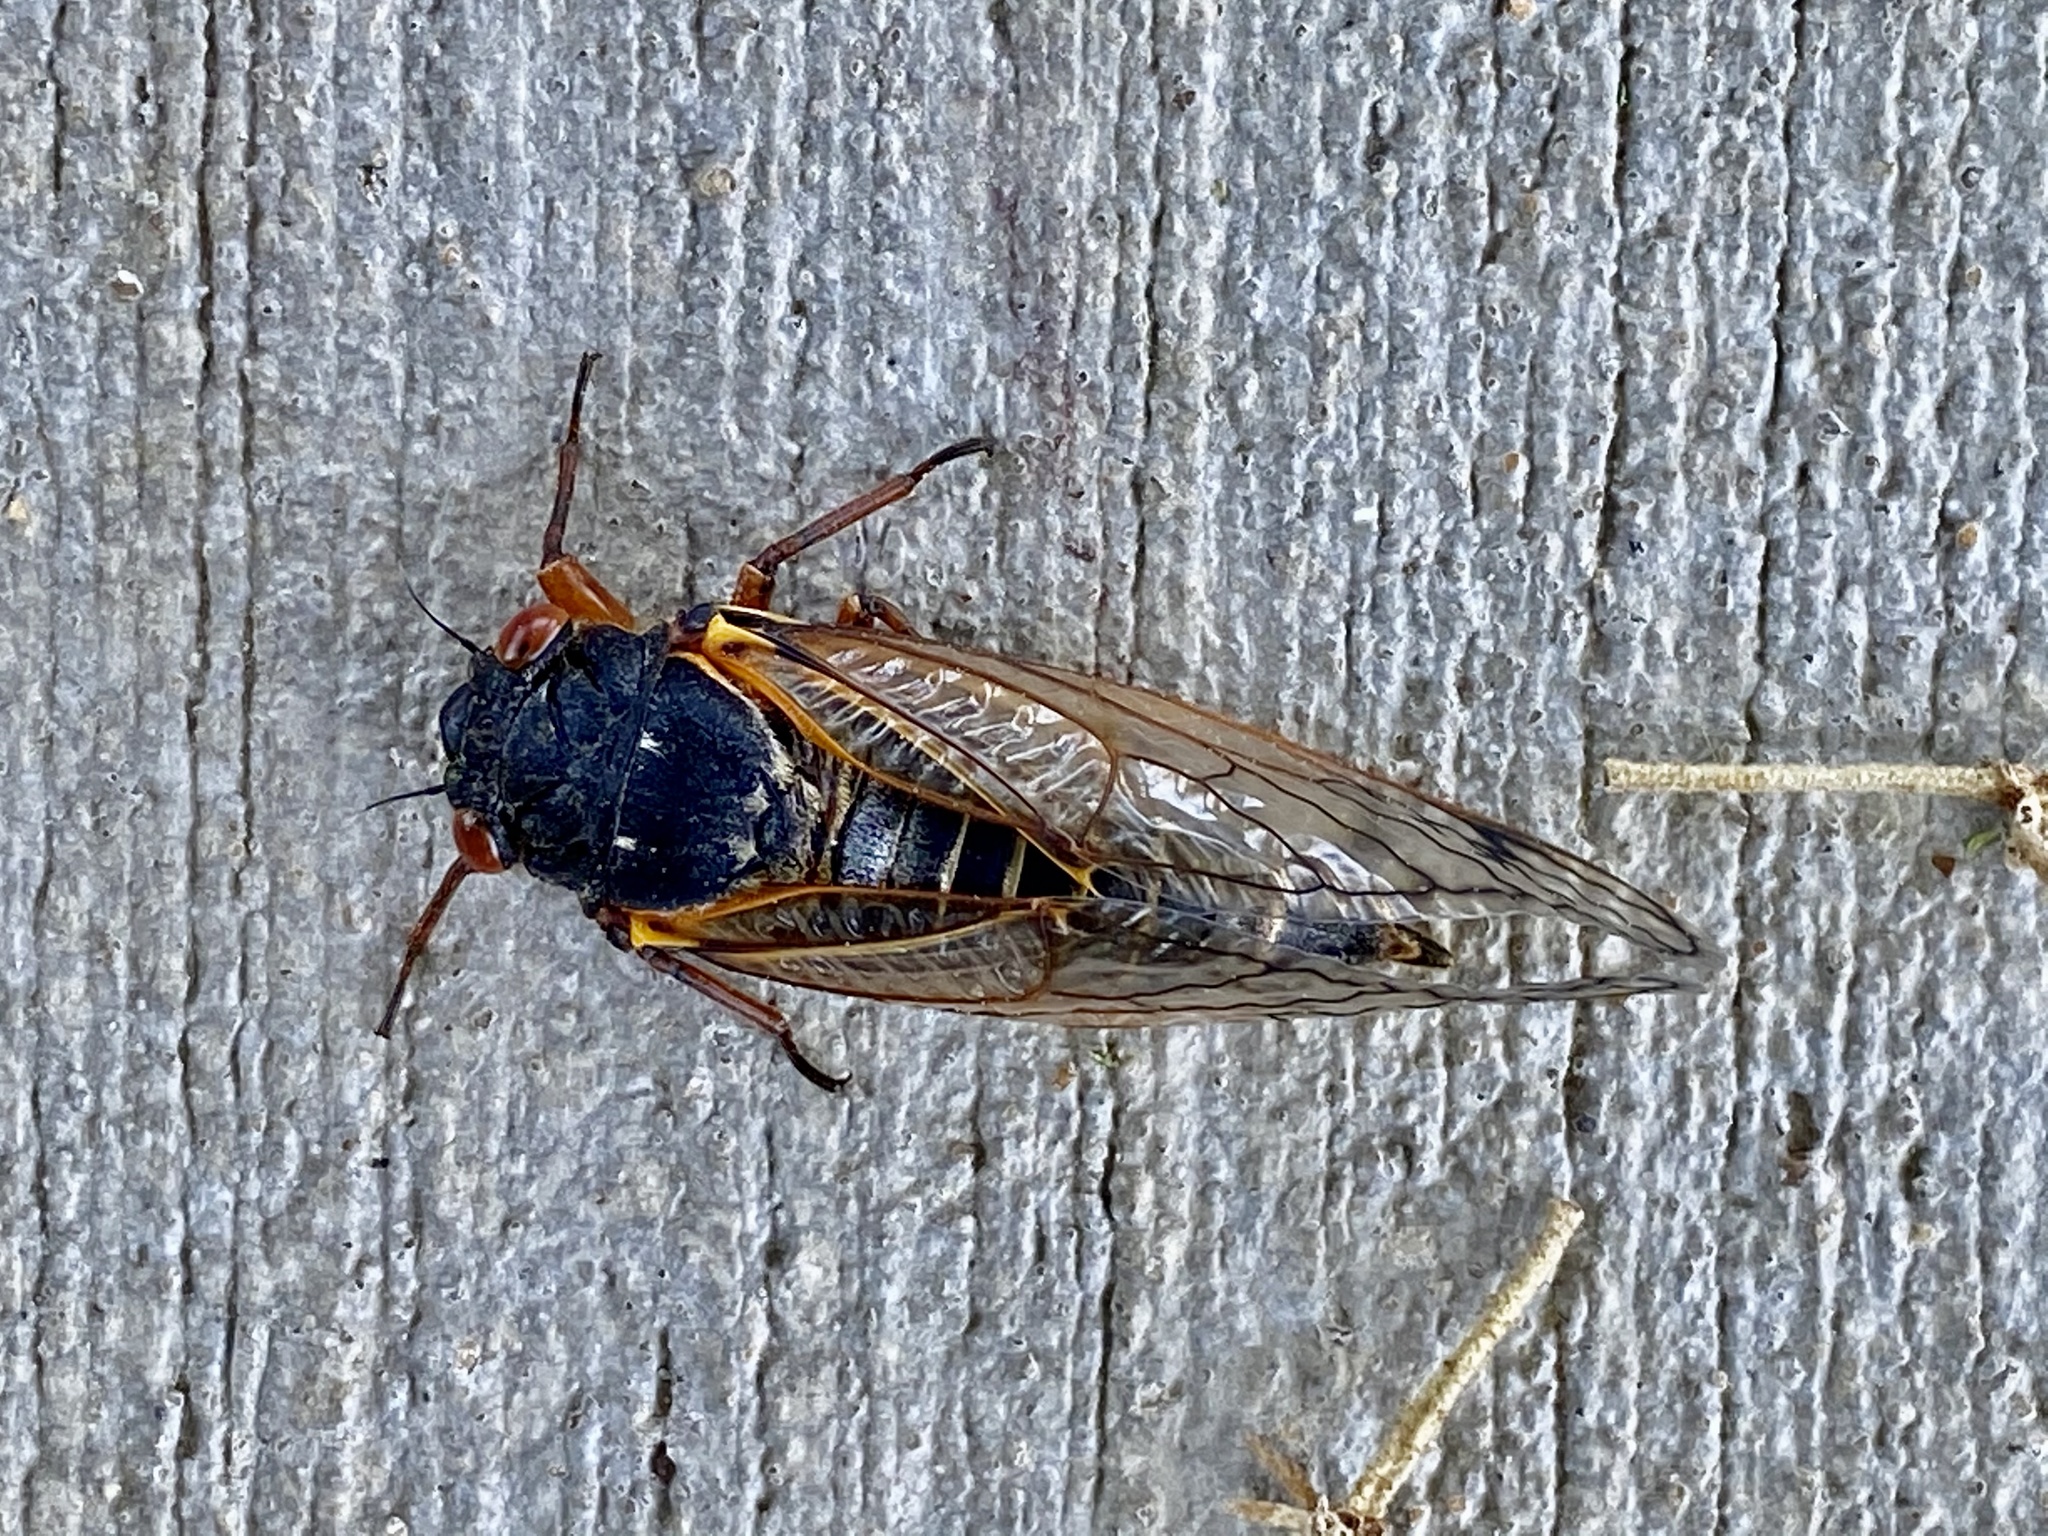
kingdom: Animalia
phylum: Arthropoda
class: Insecta
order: Hemiptera
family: Cicadidae
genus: Magicicada
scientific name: Magicicada septendecim
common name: Periodical cicada
